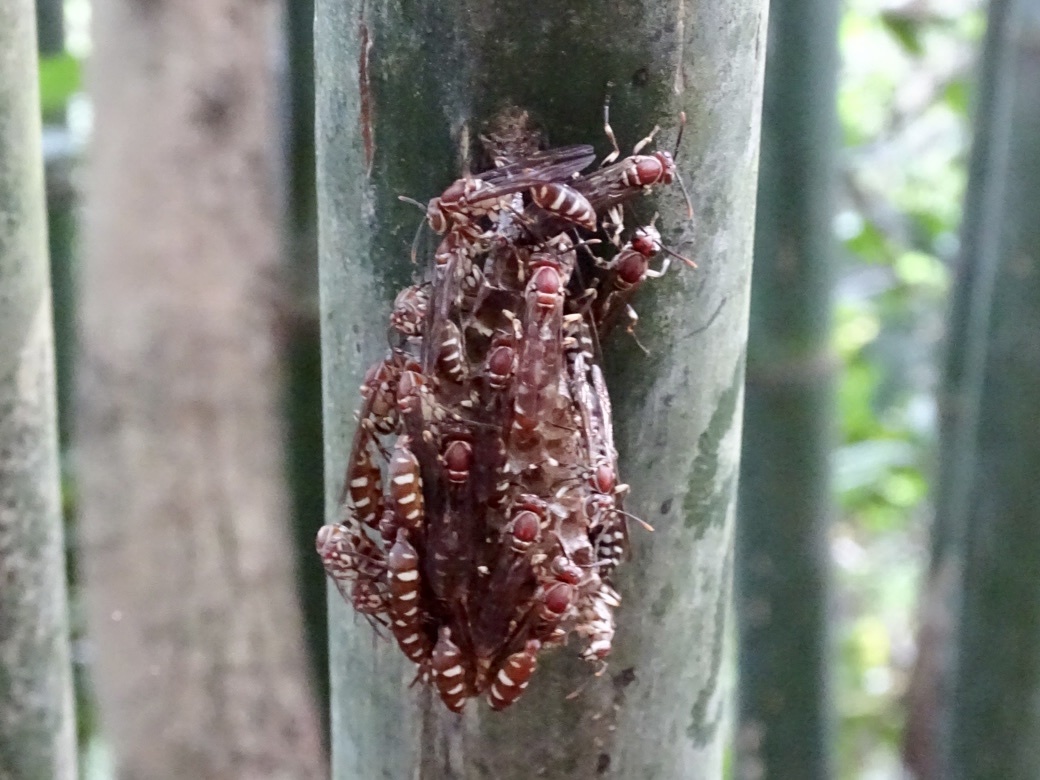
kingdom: Animalia
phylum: Arthropoda
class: Insecta
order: Hymenoptera
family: Vespidae
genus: Parapolybia
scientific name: Parapolybia nodosa
